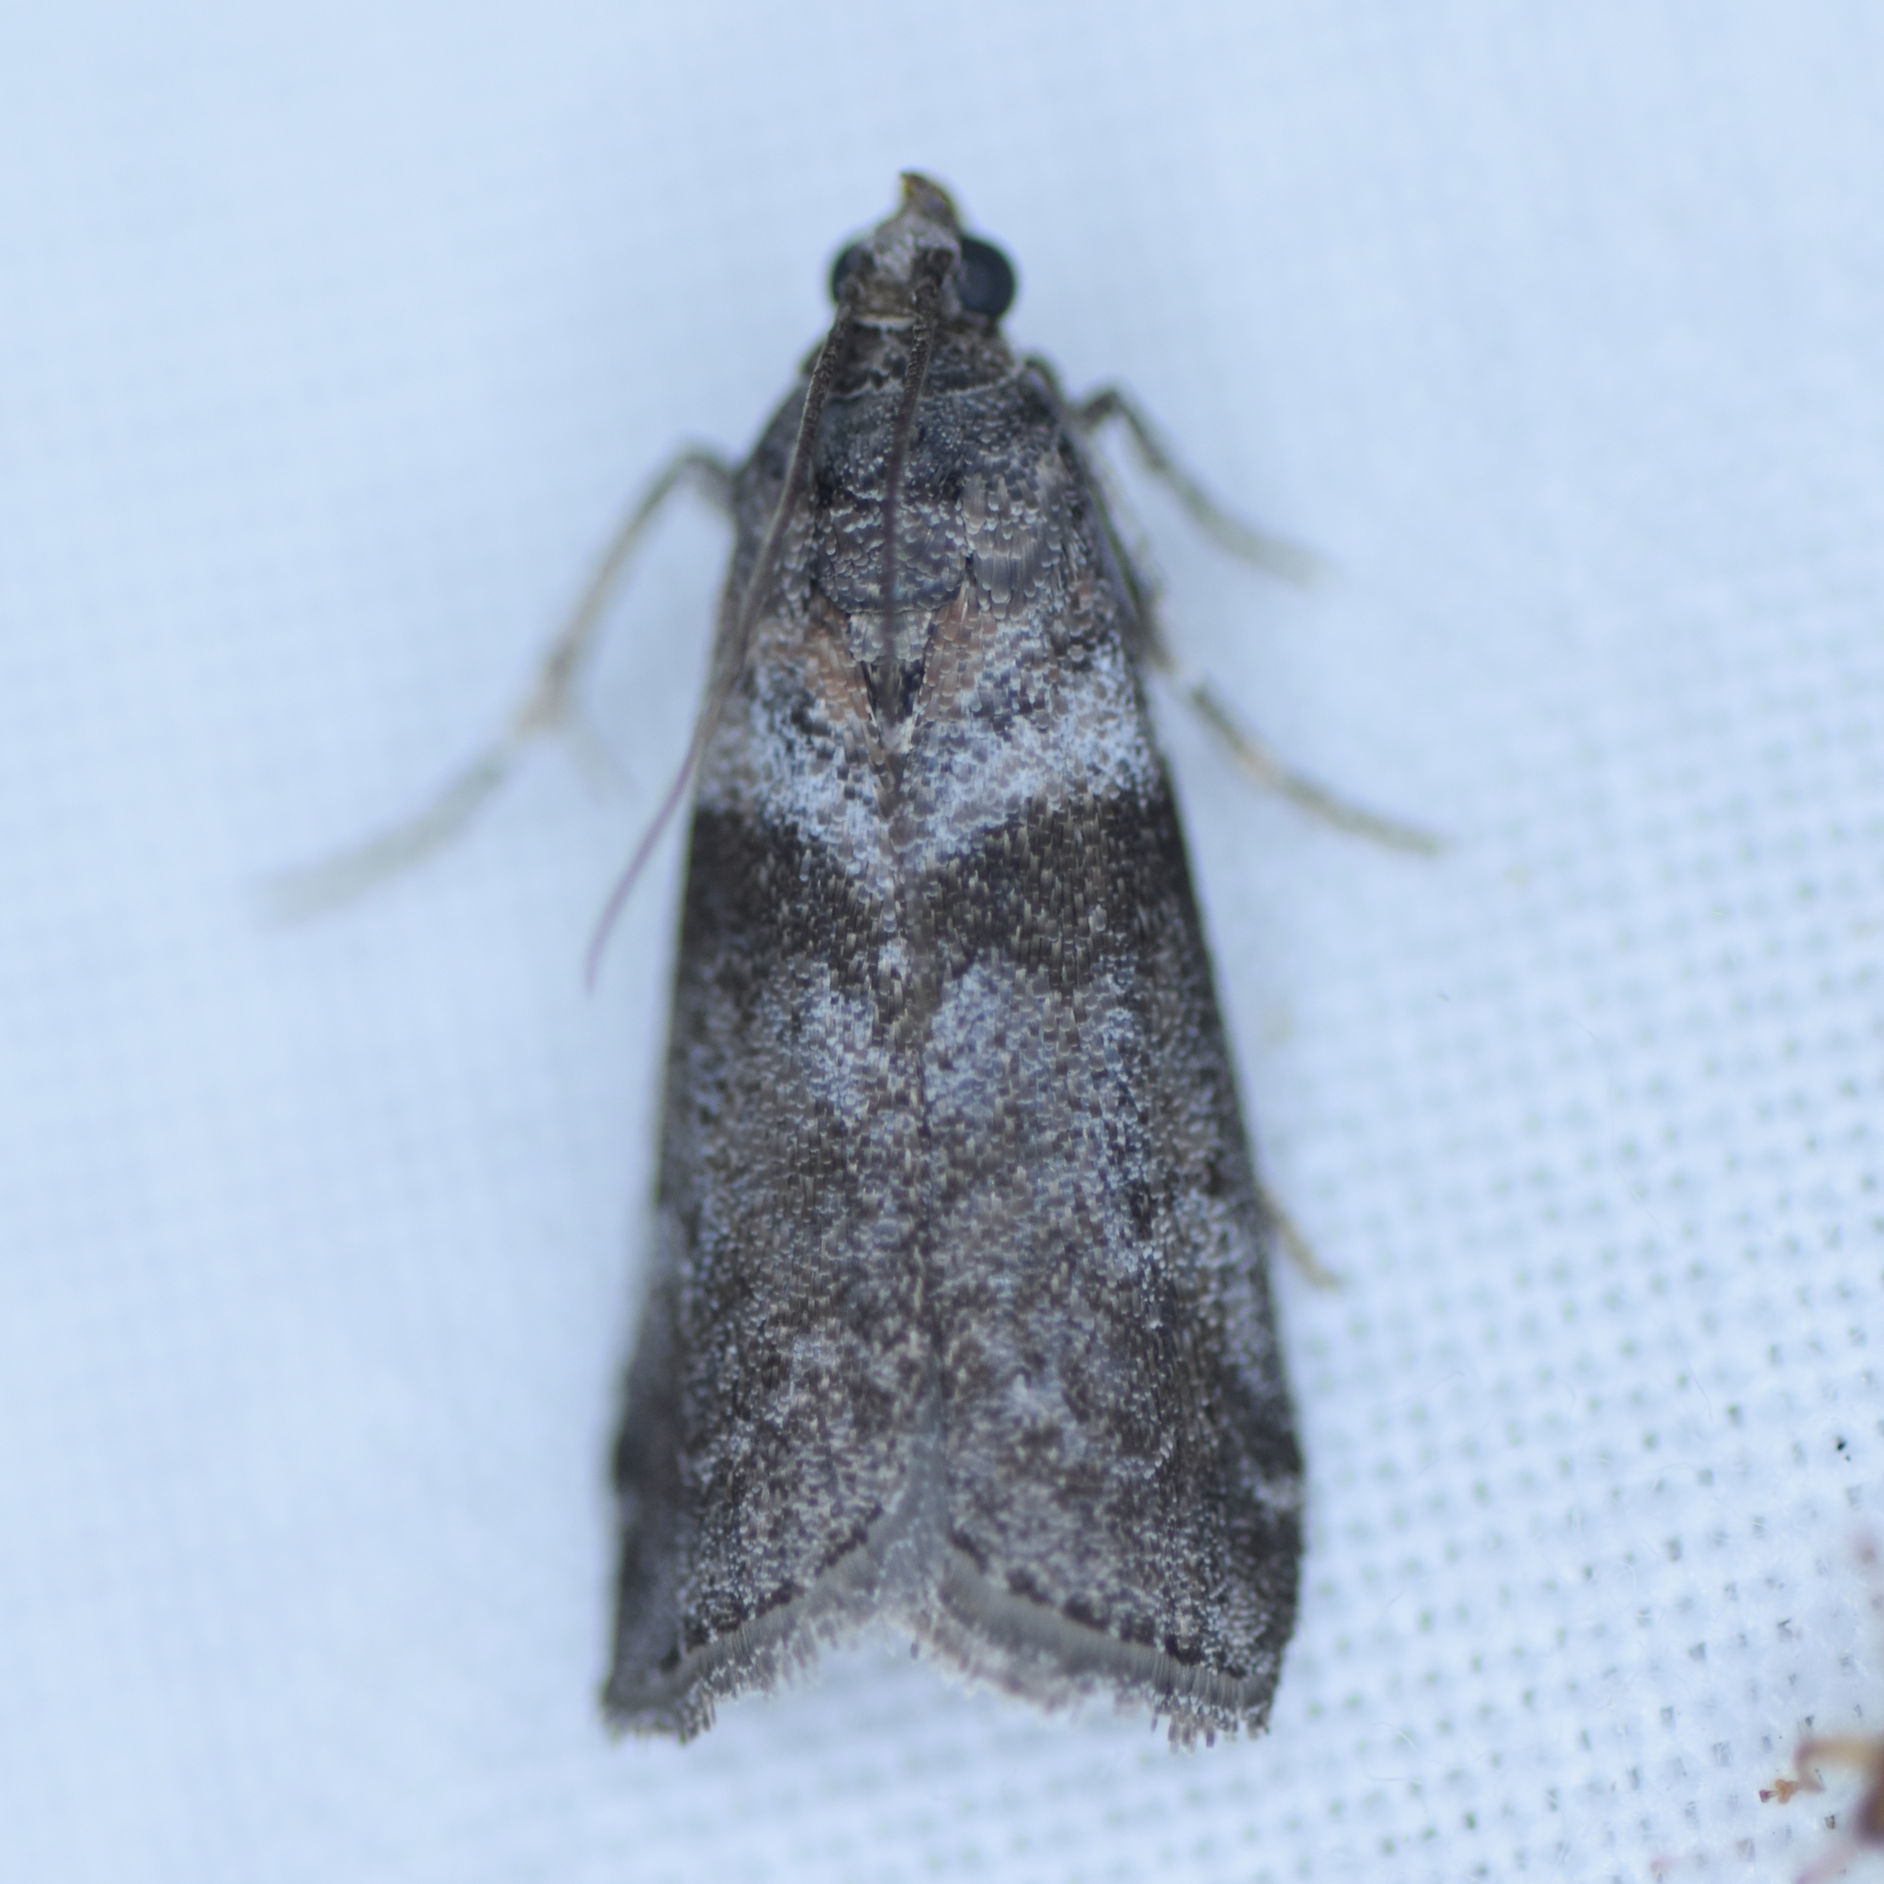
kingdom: Animalia
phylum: Arthropoda
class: Insecta
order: Lepidoptera
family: Pyralidae
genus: Sciota
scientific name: Sciota subcaesiella
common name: Locust leafroller
